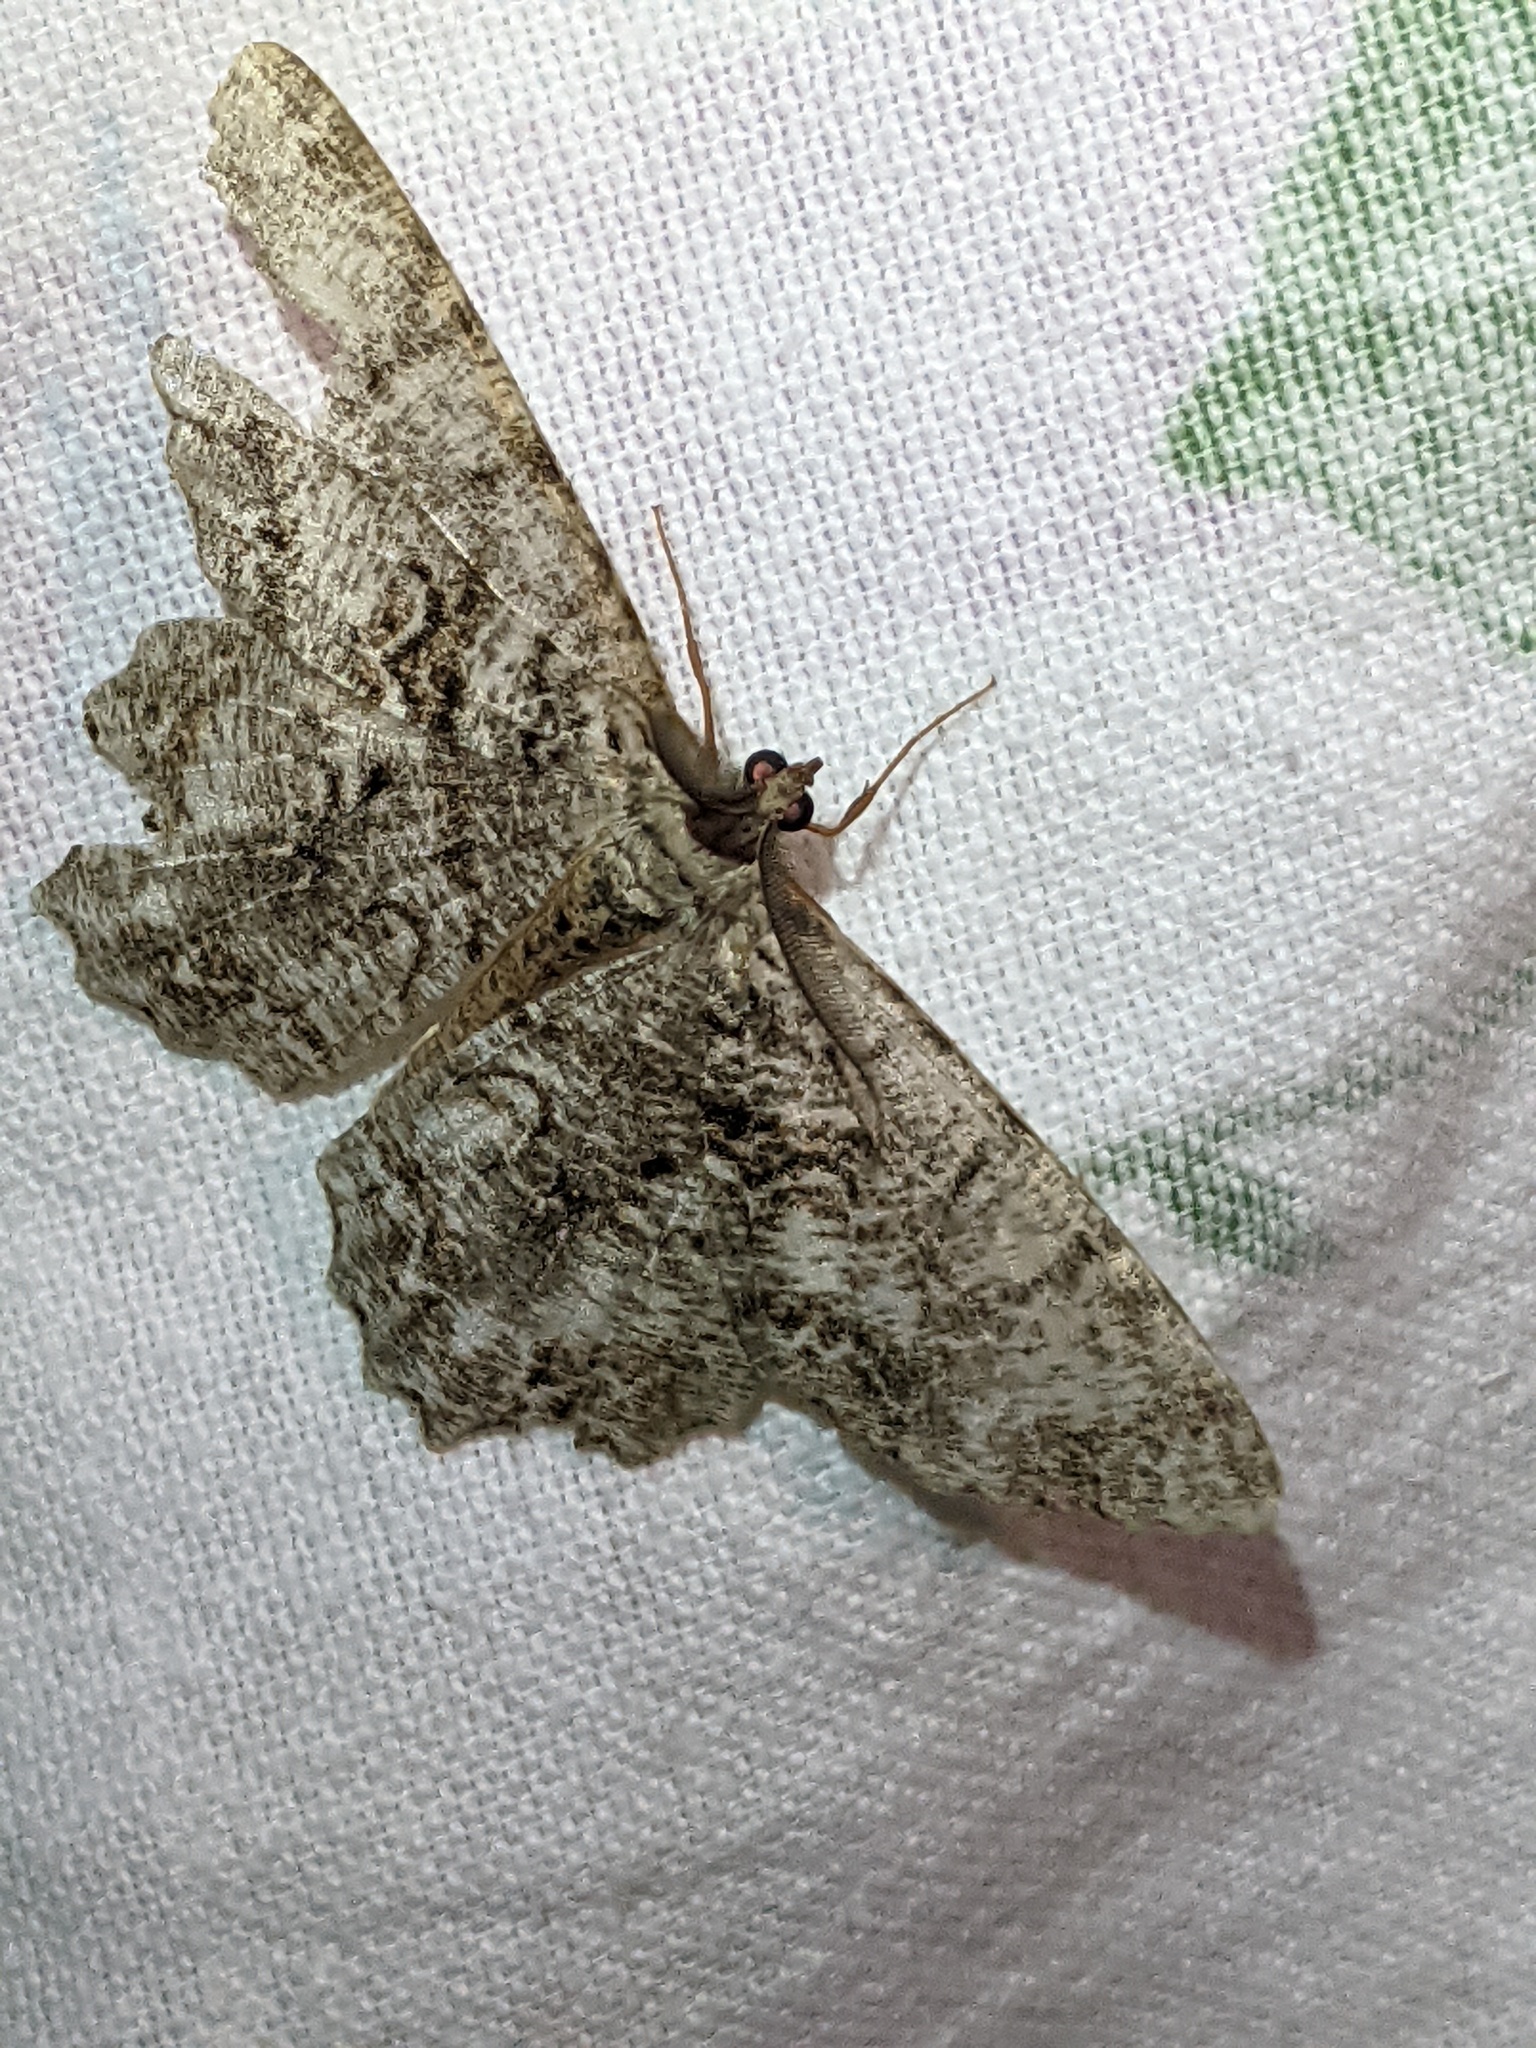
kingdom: Animalia
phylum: Arthropoda
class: Insecta
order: Lepidoptera
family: Geometridae
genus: Epimecis
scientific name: Epimecis hortaria
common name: Tulip-tree beauty
